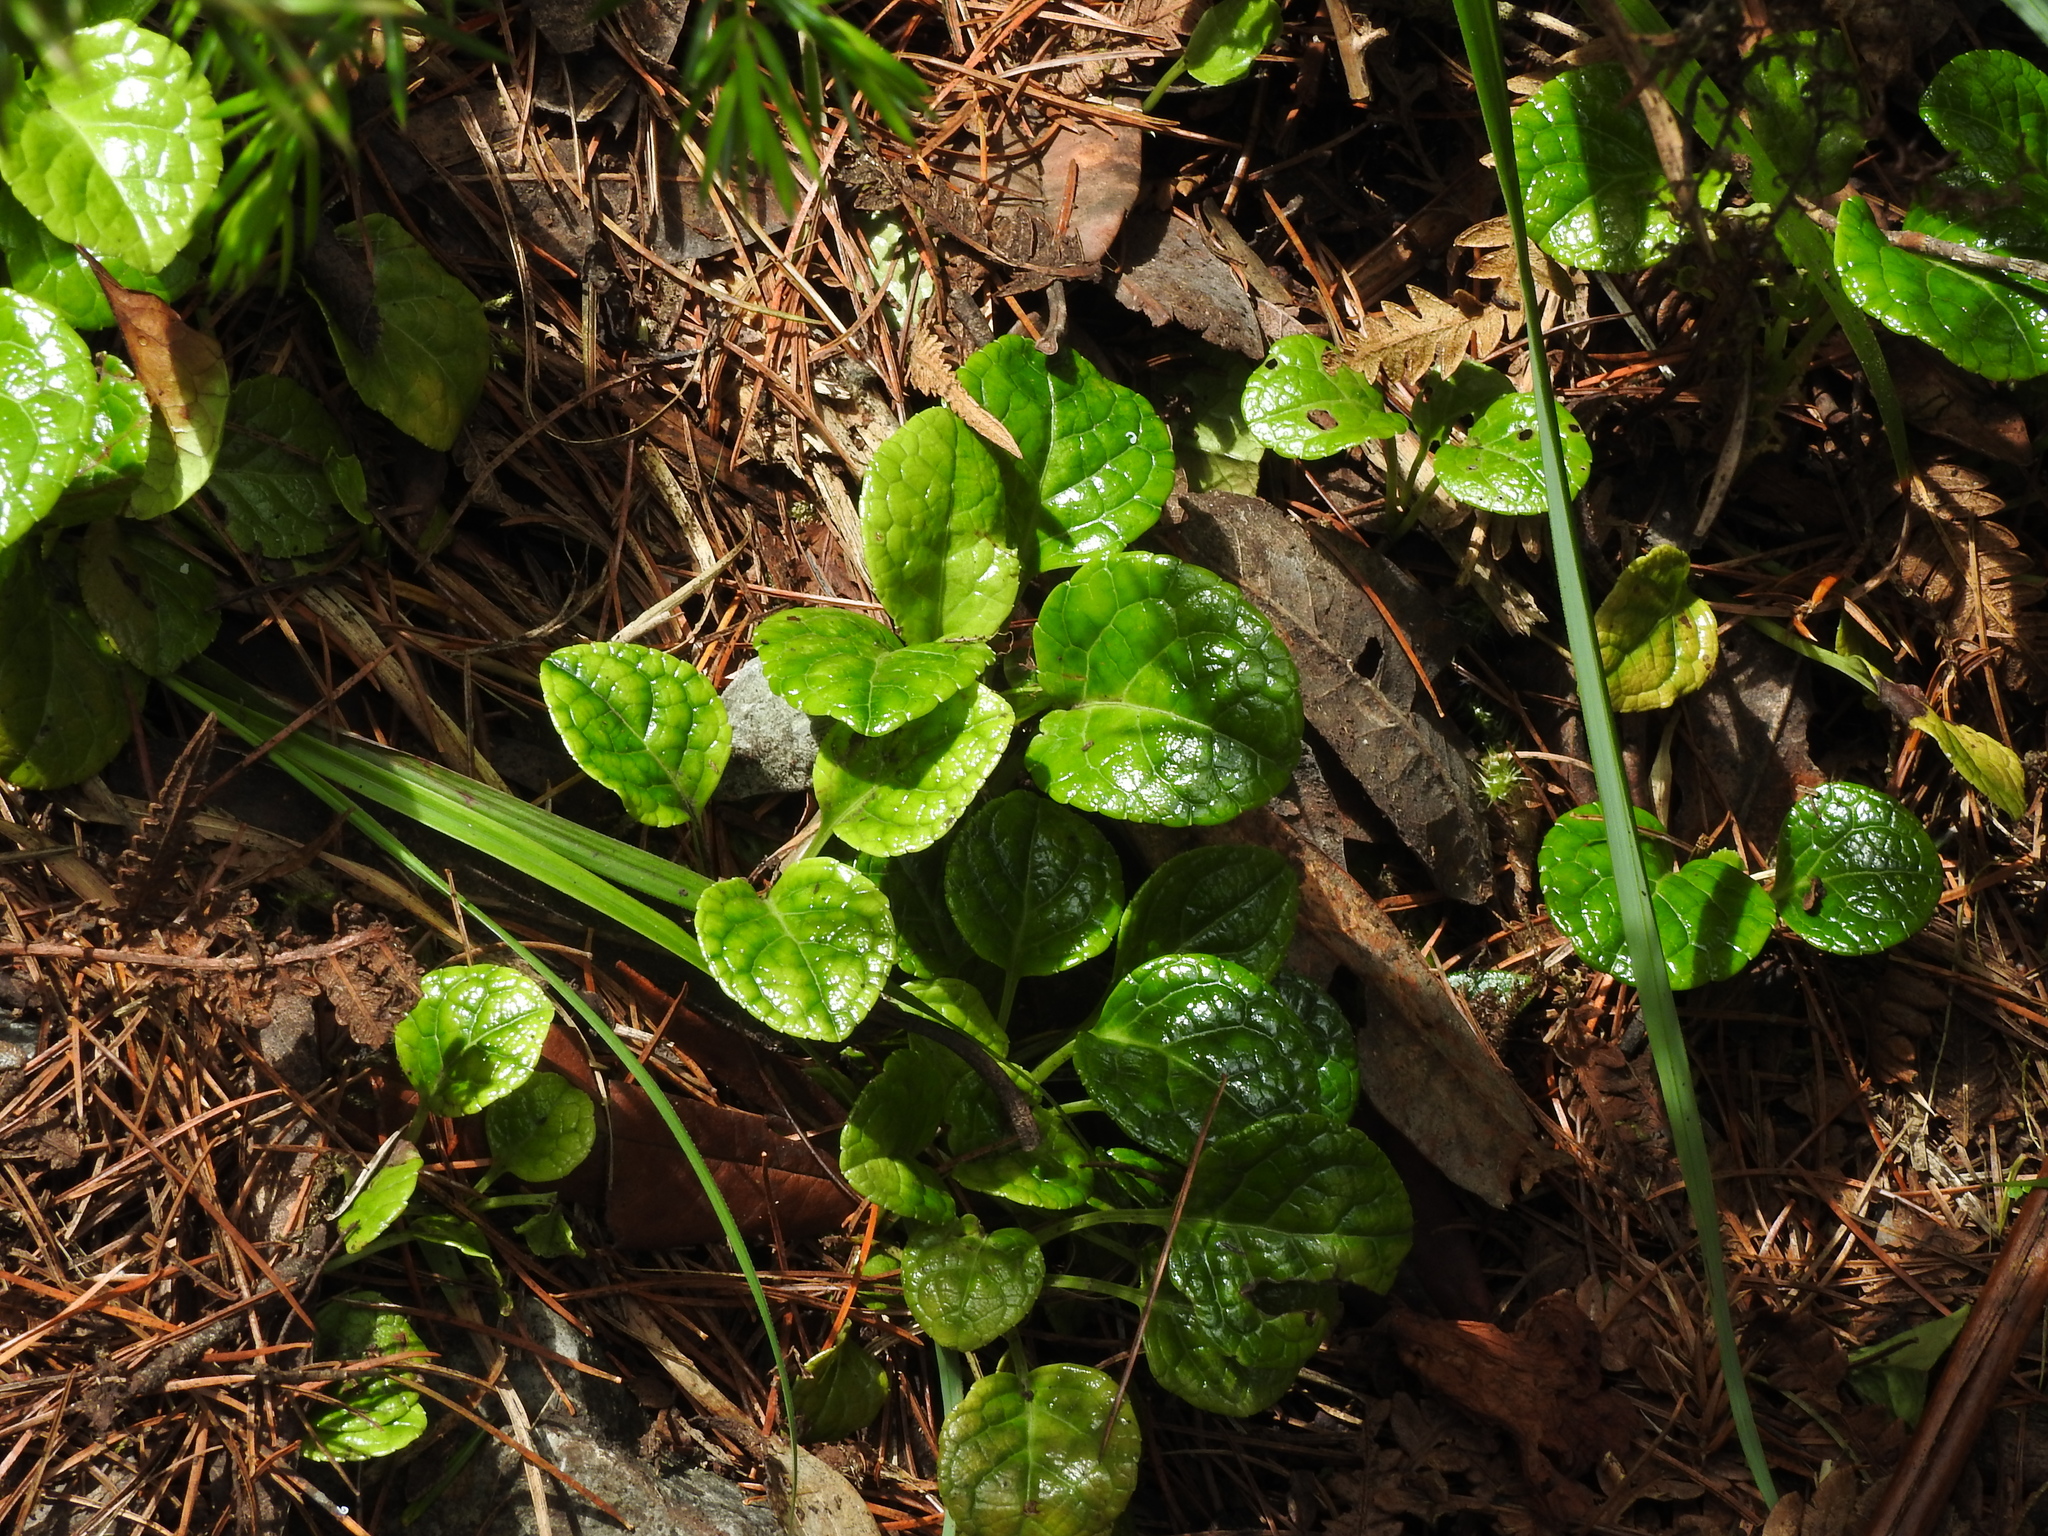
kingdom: Plantae
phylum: Tracheophyta
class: Magnoliopsida
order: Ericales
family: Ericaceae
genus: Pyrola
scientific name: Pyrola morrisonensis
